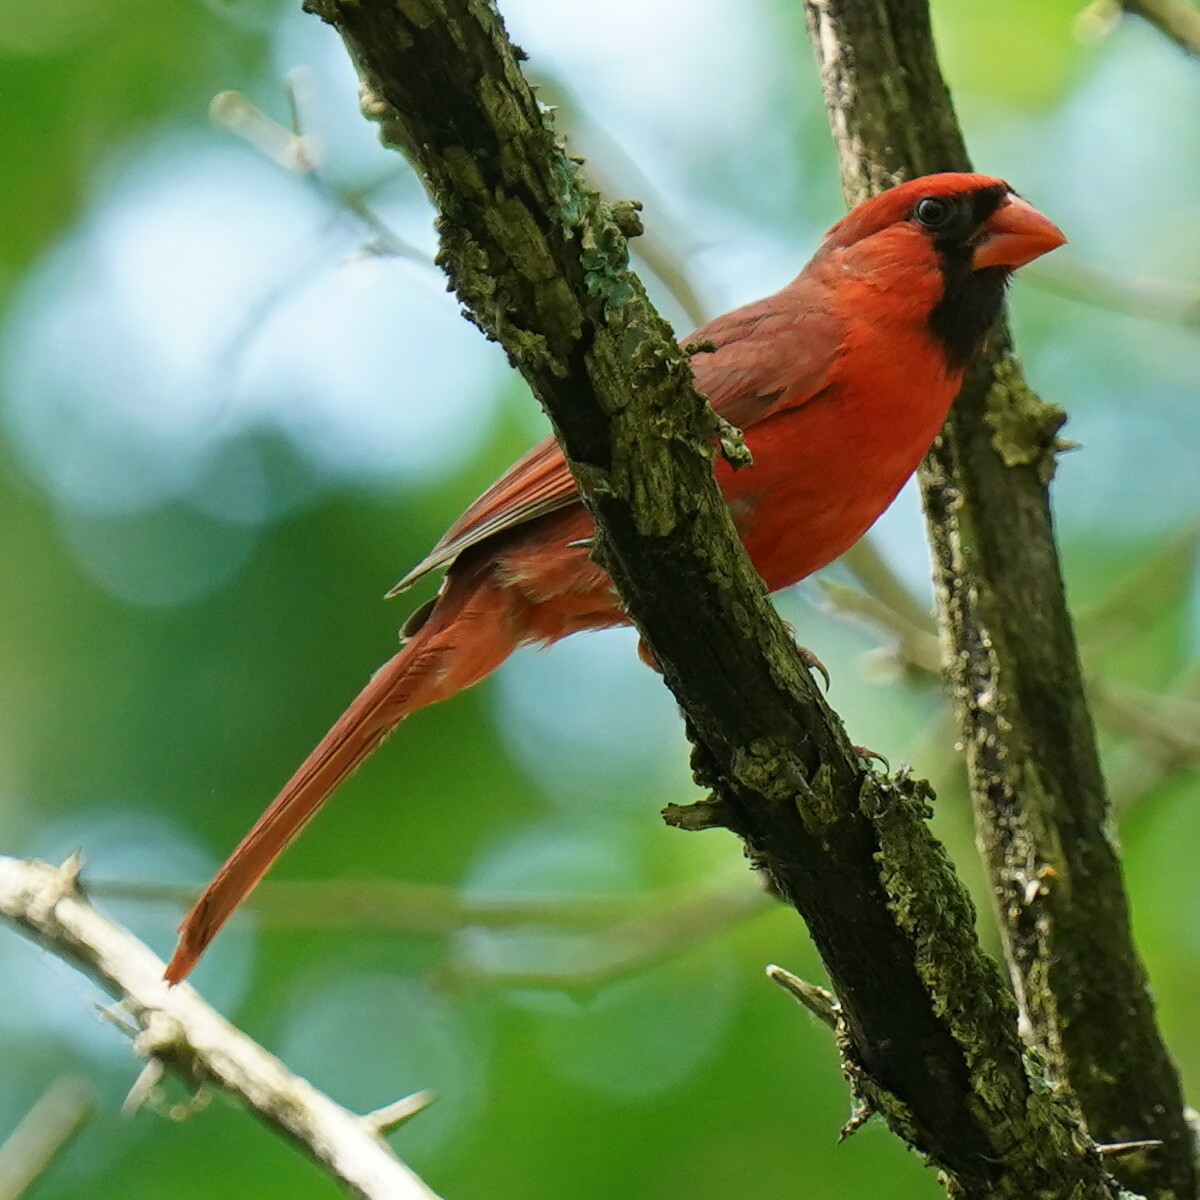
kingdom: Animalia
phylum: Chordata
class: Aves
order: Passeriformes
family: Cardinalidae
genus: Cardinalis
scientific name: Cardinalis cardinalis
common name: Northern cardinal
